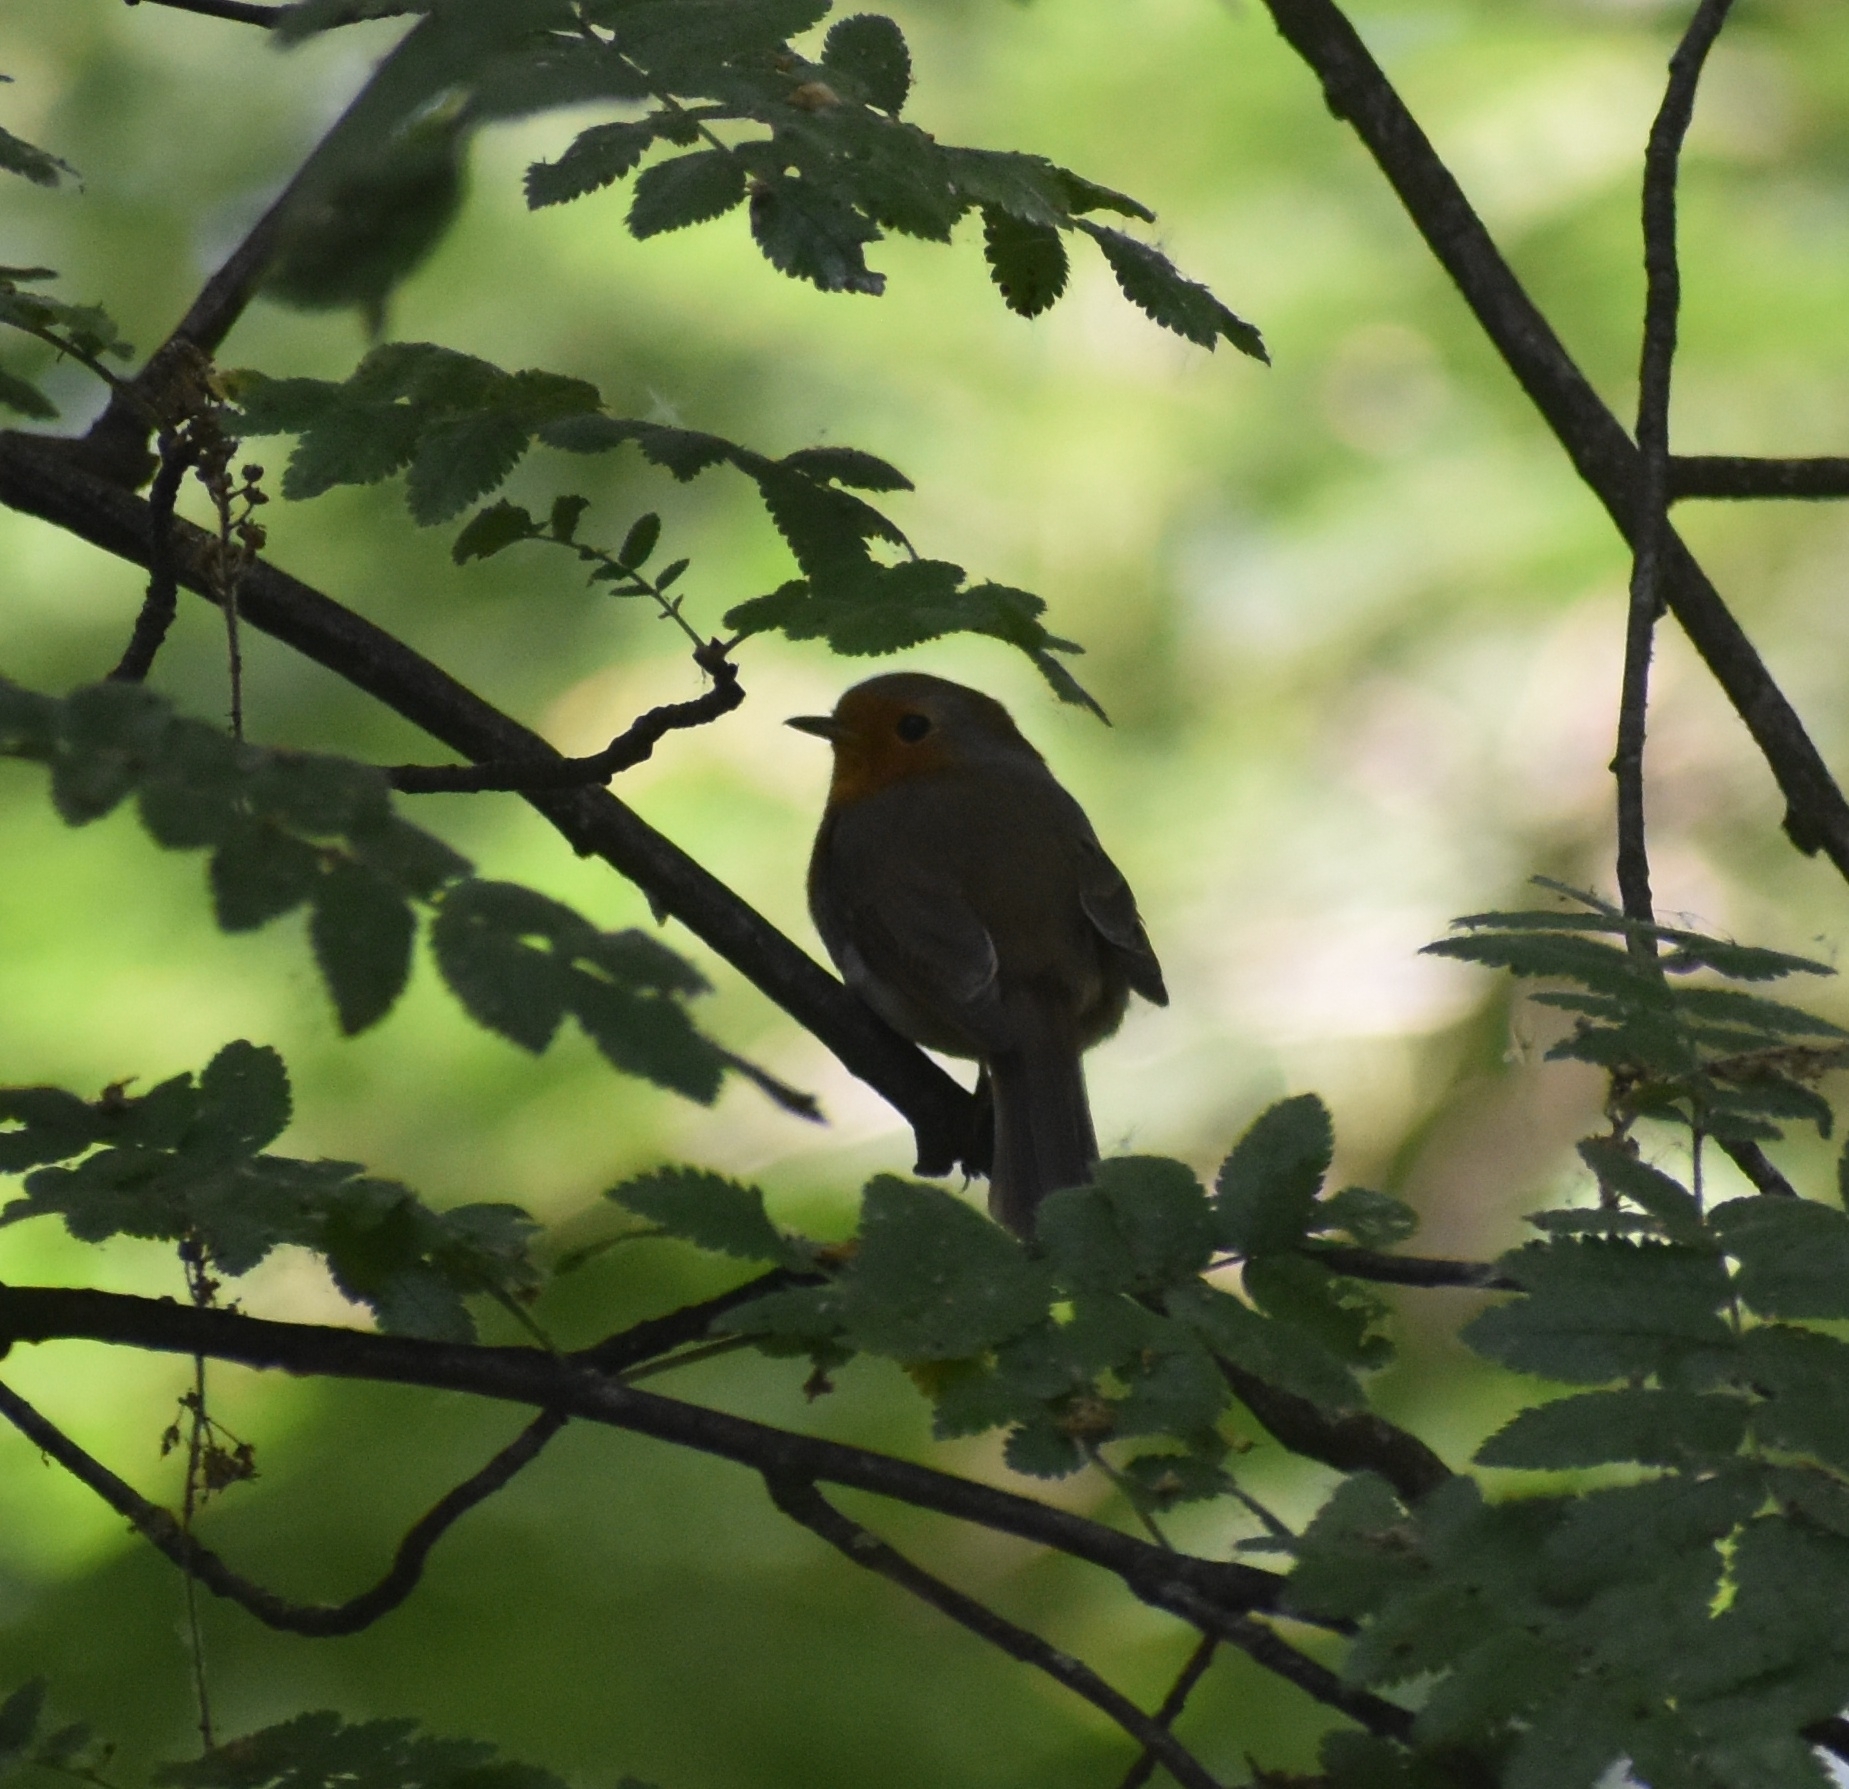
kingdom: Animalia
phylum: Chordata
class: Aves
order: Passeriformes
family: Muscicapidae
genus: Erithacus
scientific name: Erithacus rubecula
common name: European robin
